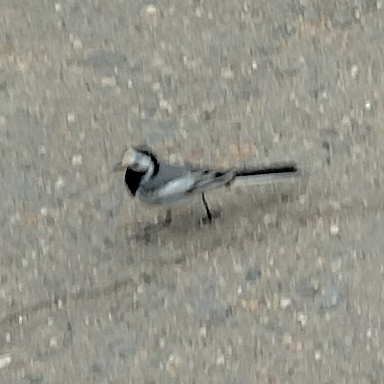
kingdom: Animalia
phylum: Chordata
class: Aves
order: Passeriformes
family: Motacillidae
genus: Motacilla
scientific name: Motacilla alba
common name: White wagtail
